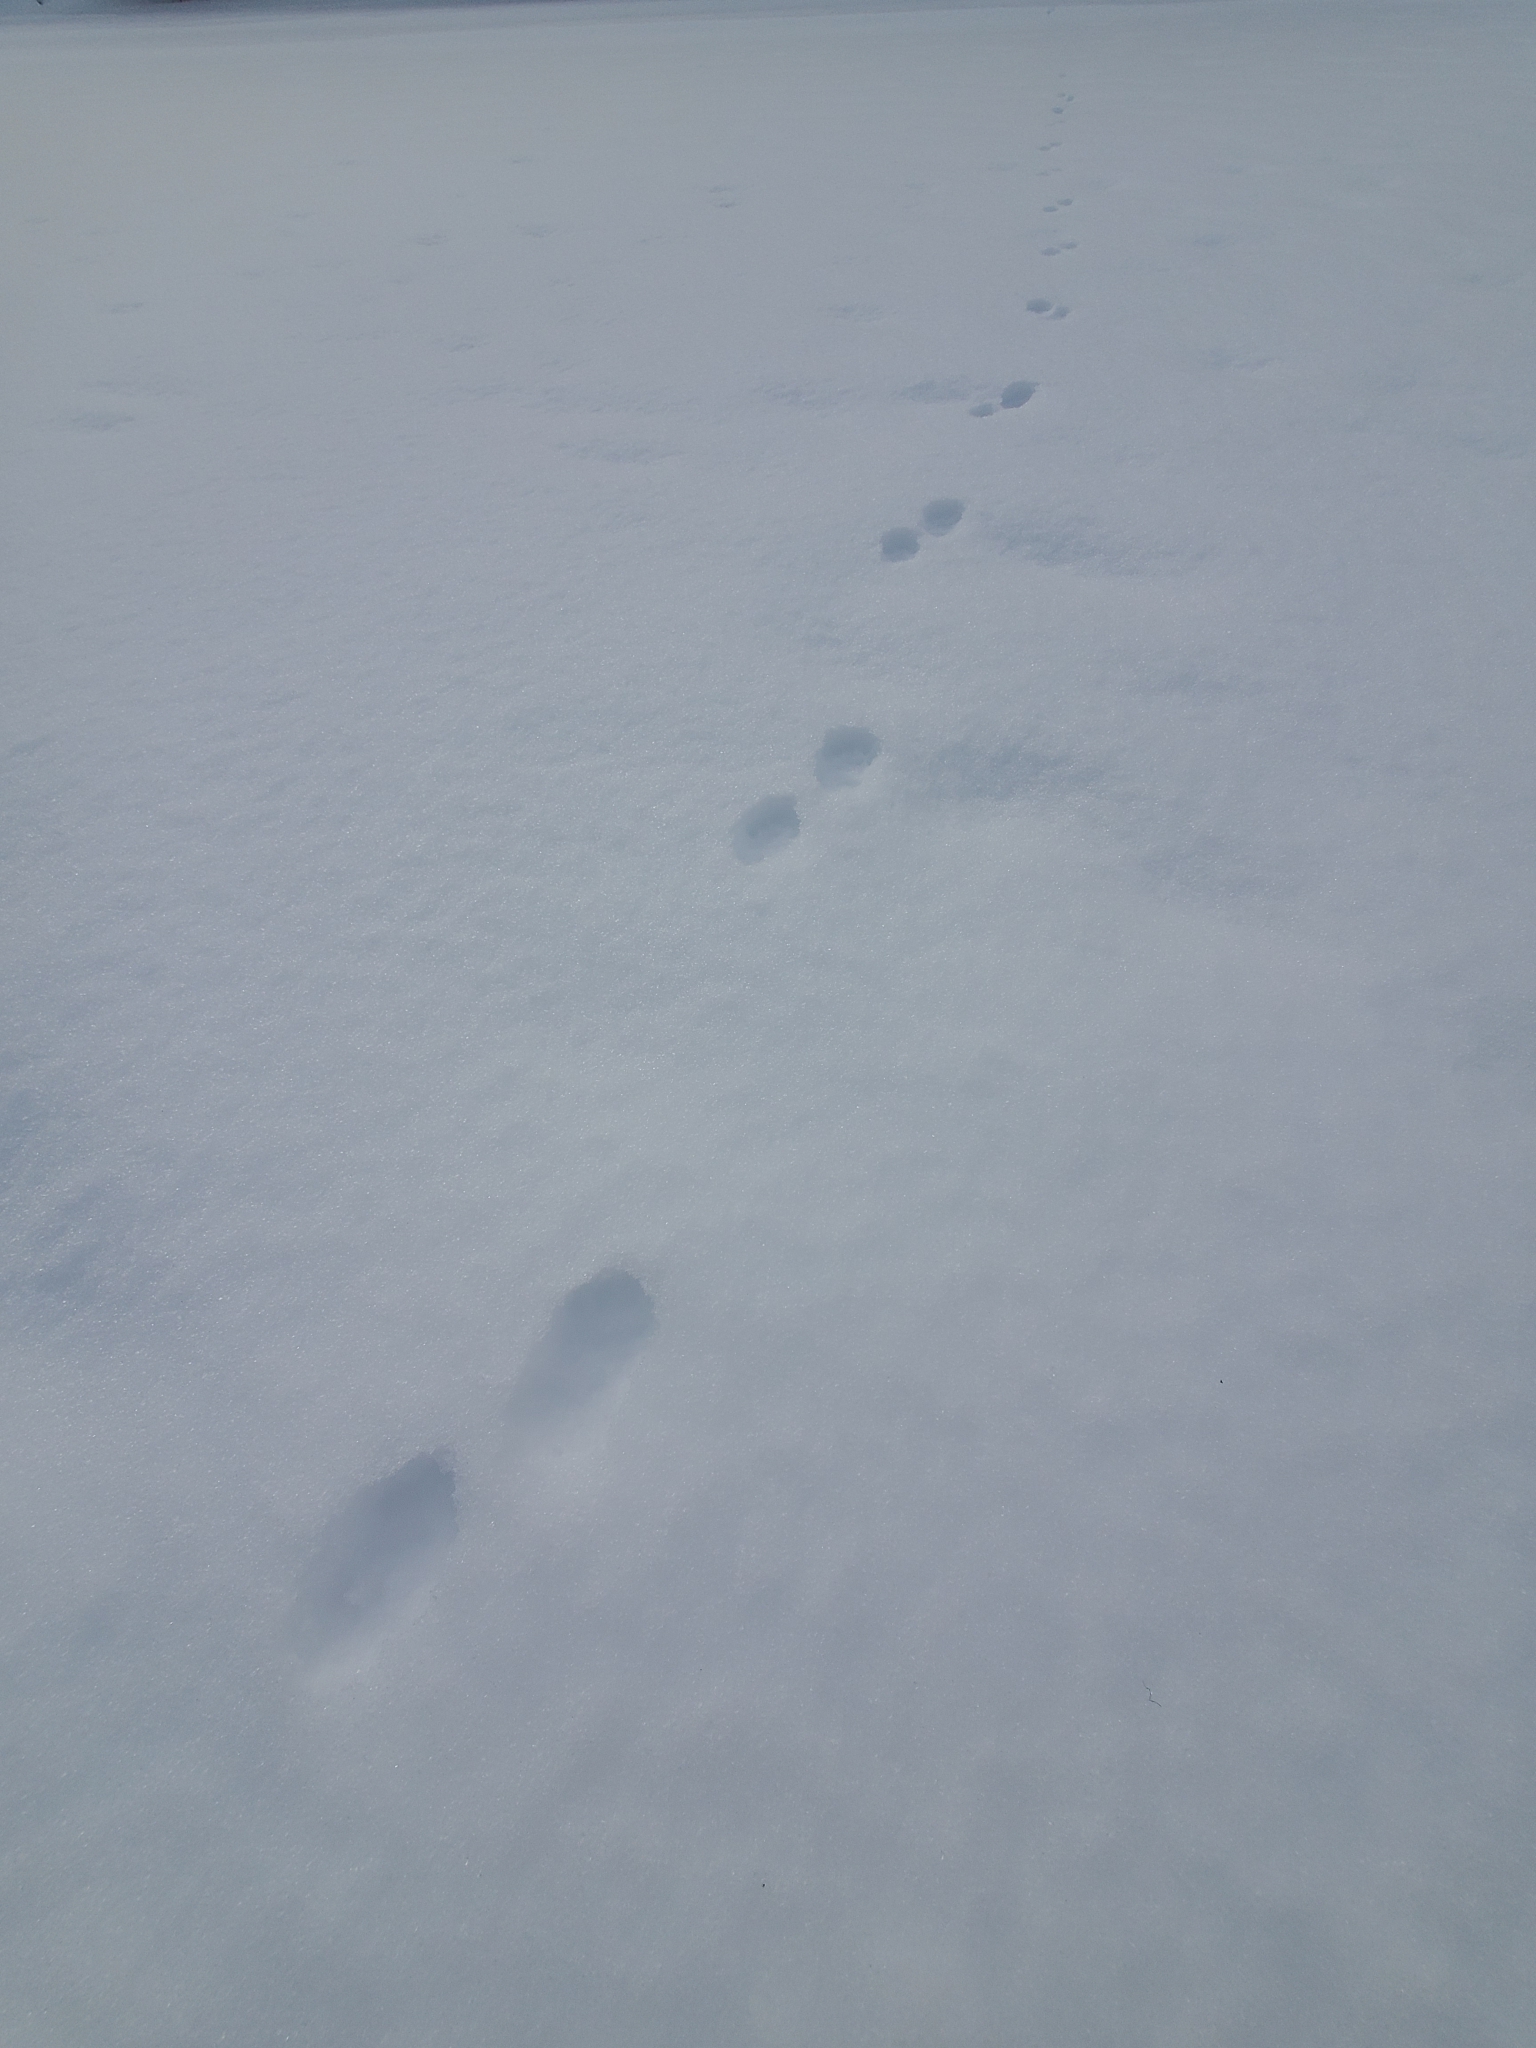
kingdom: Animalia
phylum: Chordata
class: Mammalia
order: Carnivora
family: Mustelidae
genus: Martes
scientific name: Martes caurina
